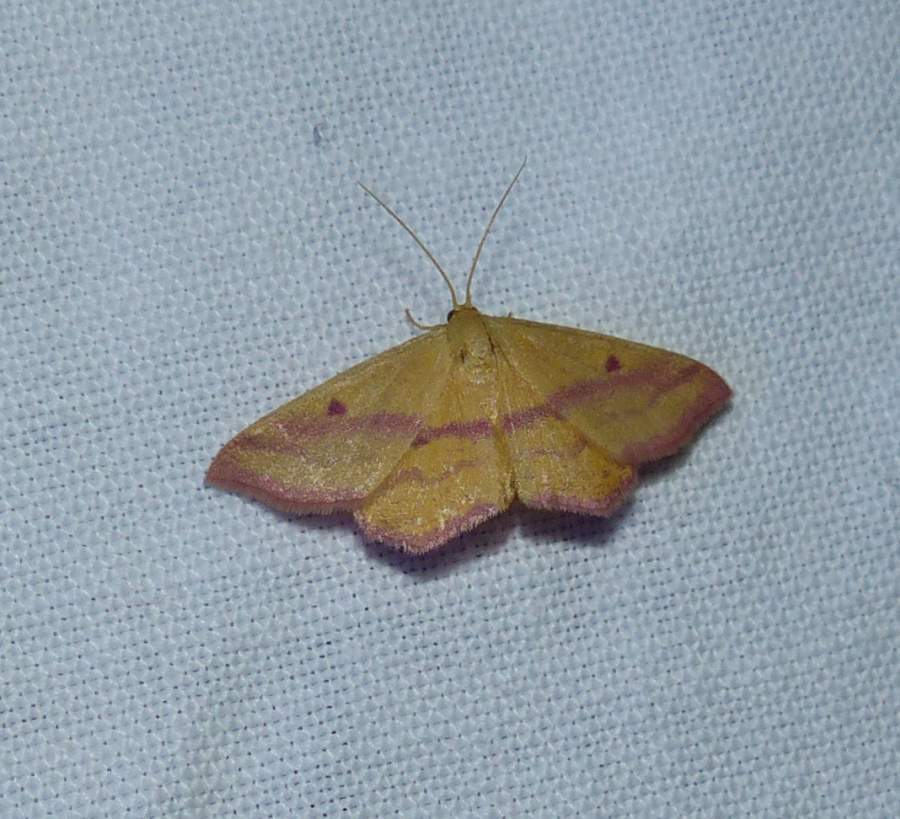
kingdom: Animalia
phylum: Arthropoda
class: Insecta
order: Lepidoptera
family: Geometridae
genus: Haematopis
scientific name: Haematopis grataria
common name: Chickweed geometer
